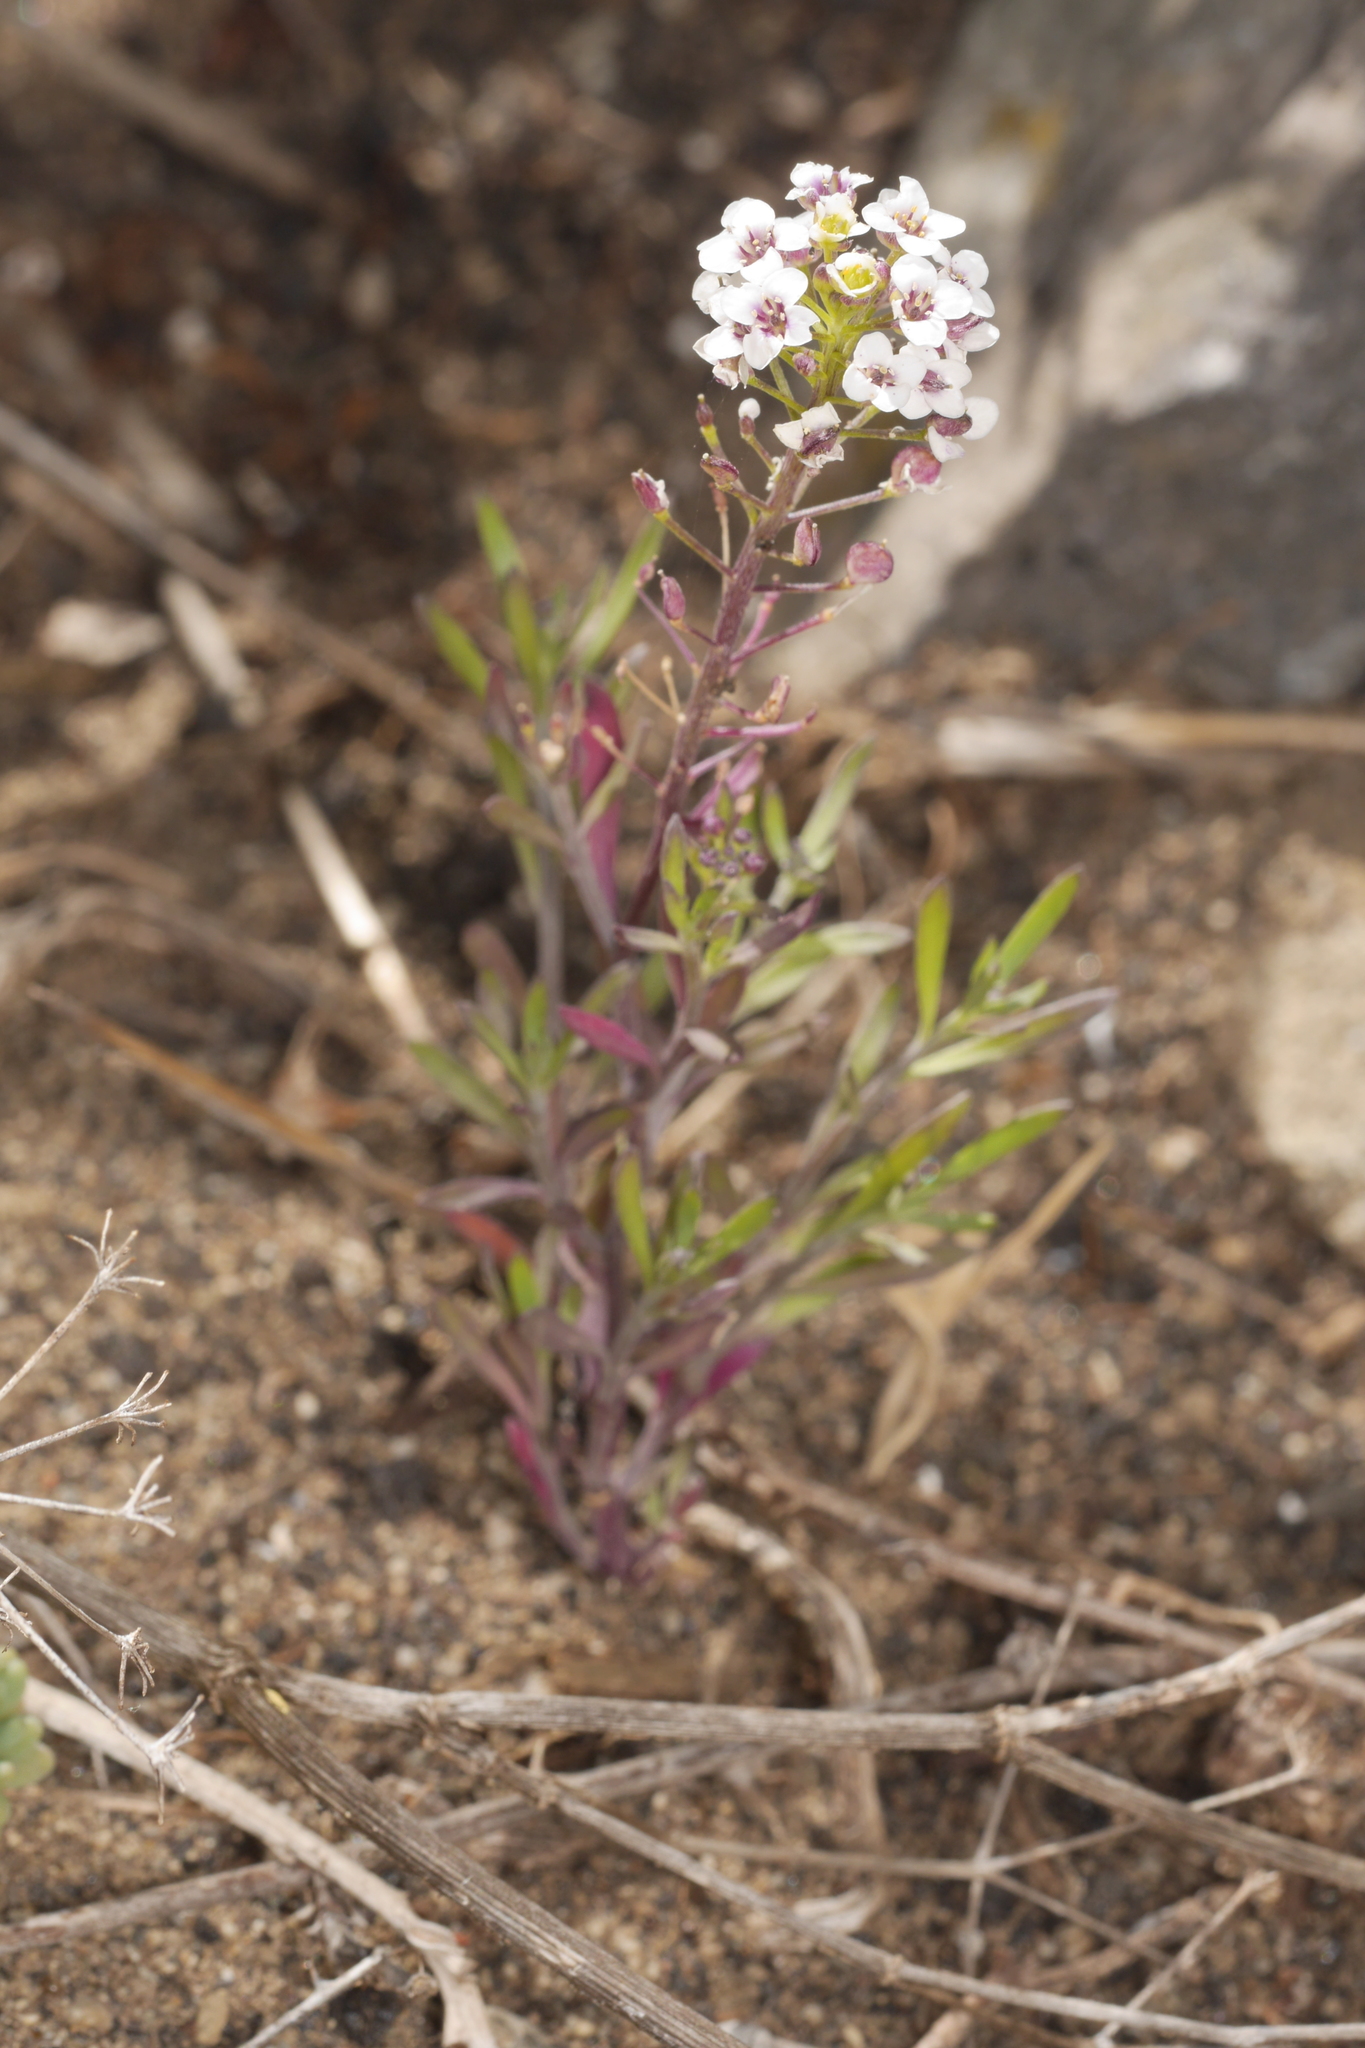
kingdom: Plantae
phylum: Tracheophyta
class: Magnoliopsida
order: Brassicales
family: Brassicaceae
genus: Lobularia
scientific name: Lobularia maritima
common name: Sweet alison
